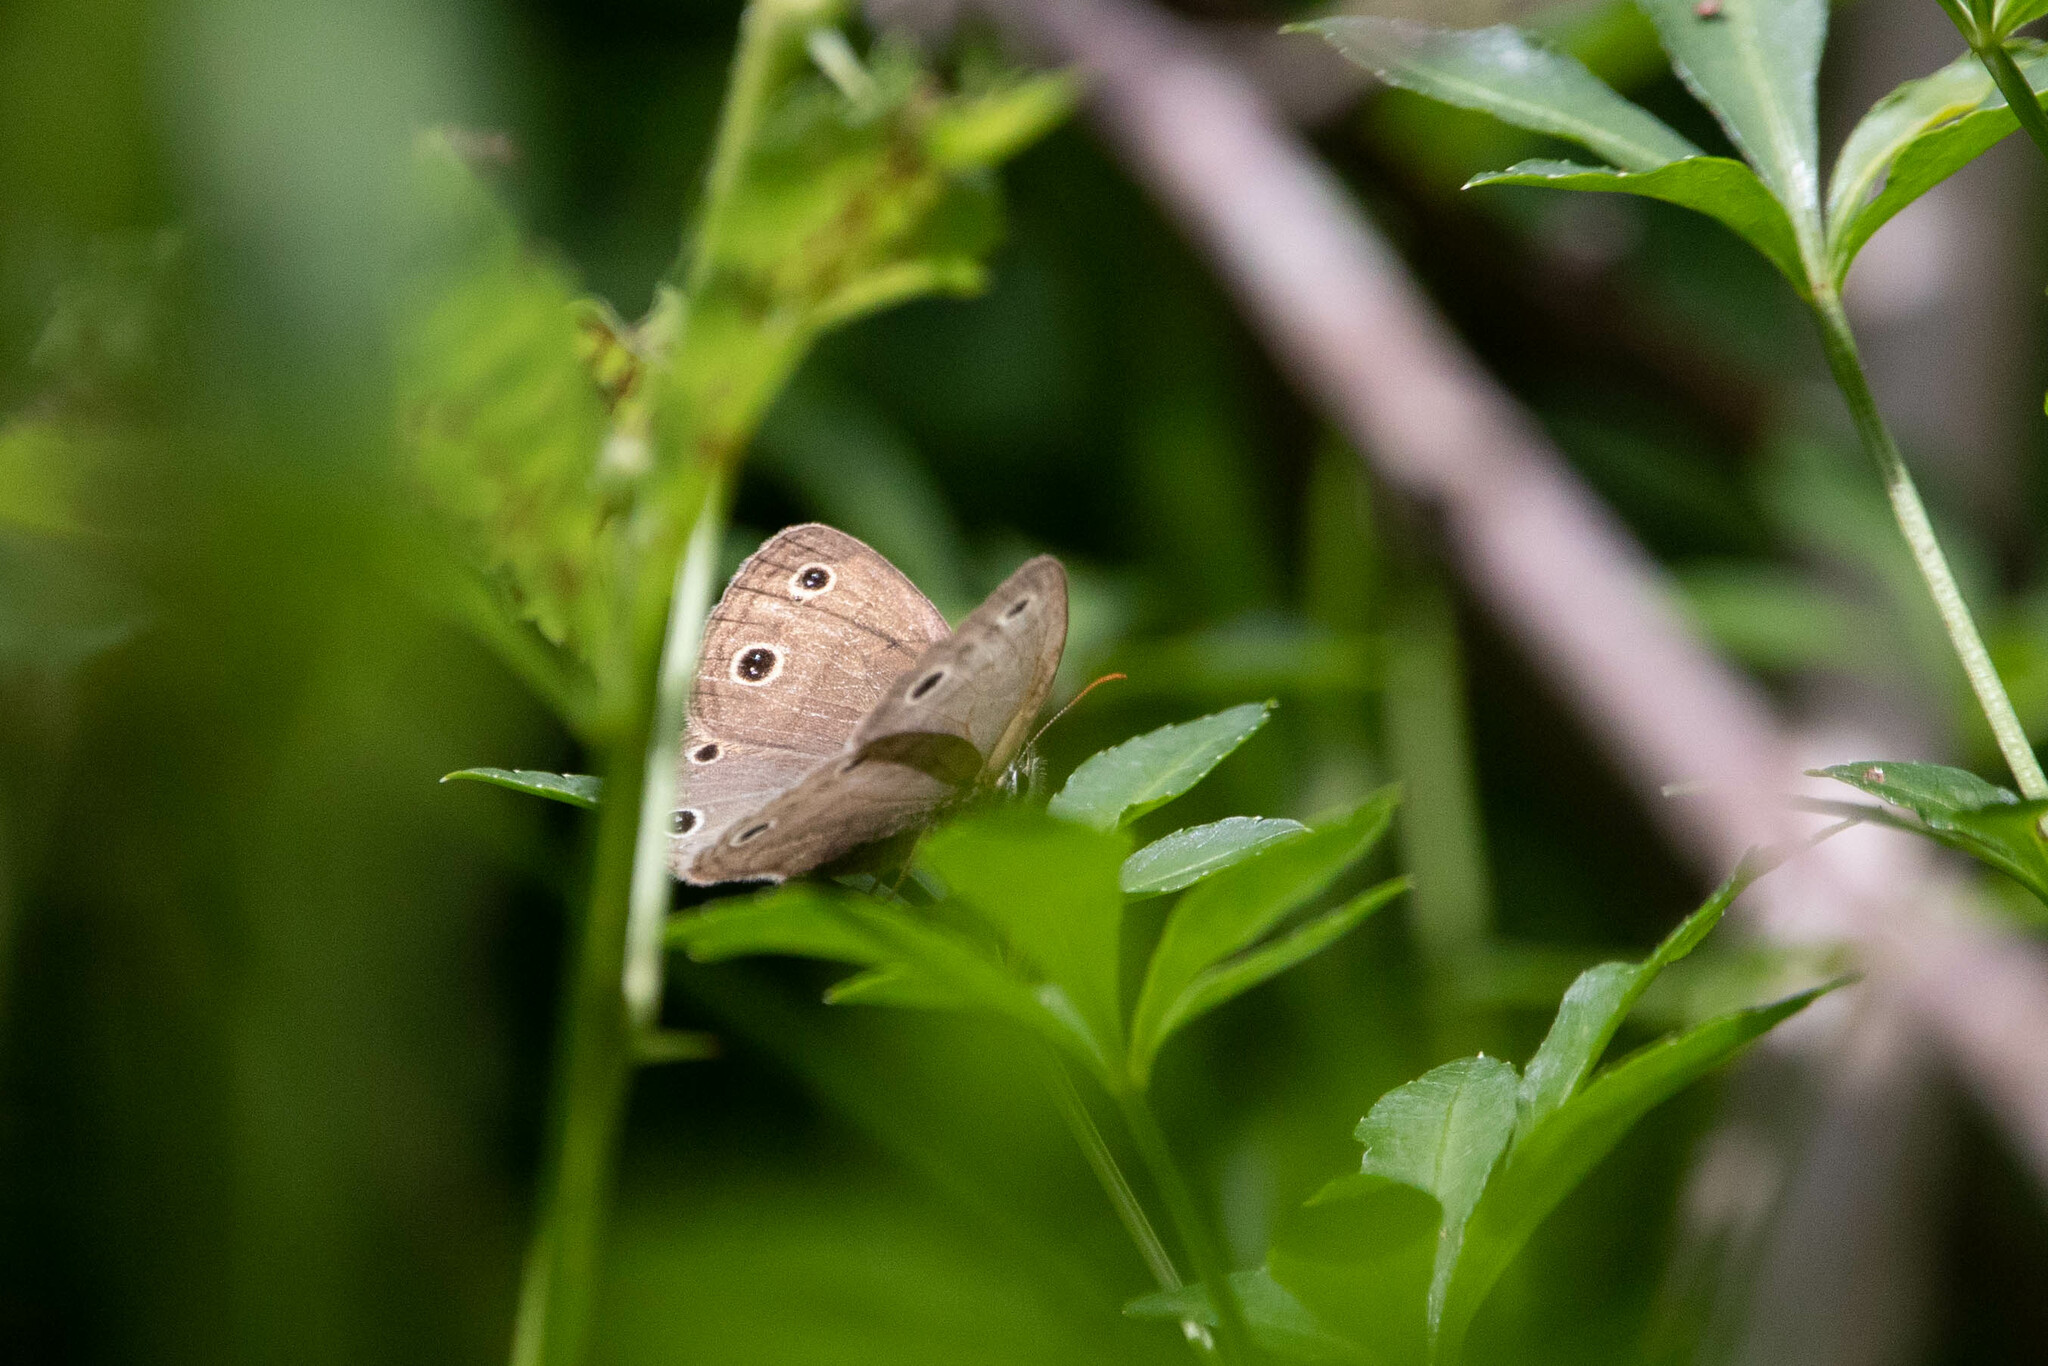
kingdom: Animalia
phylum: Arthropoda
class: Insecta
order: Lepidoptera
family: Nymphalidae
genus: Euptychia
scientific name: Euptychia cymela
